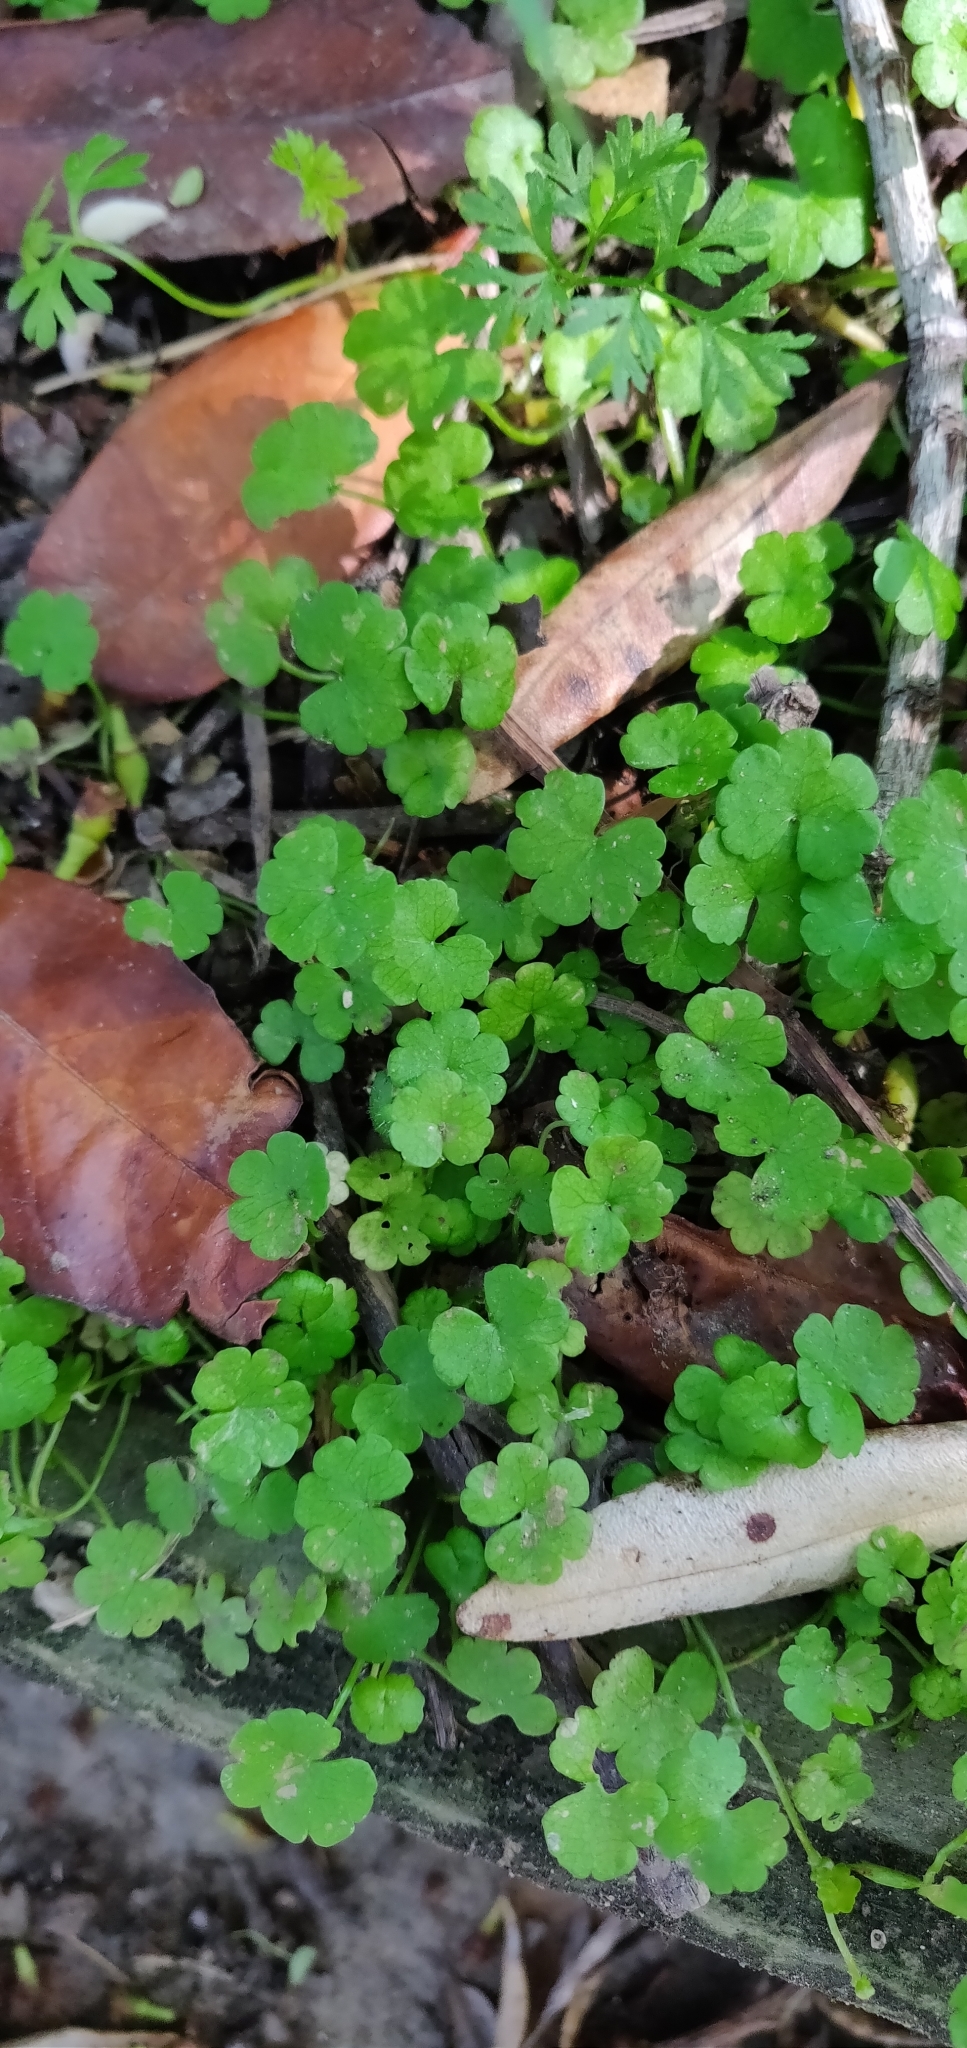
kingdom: Plantae
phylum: Tracheophyta
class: Magnoliopsida
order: Apiales
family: Araliaceae
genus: Hydrocotyle
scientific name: Hydrocotyle heteromeria
